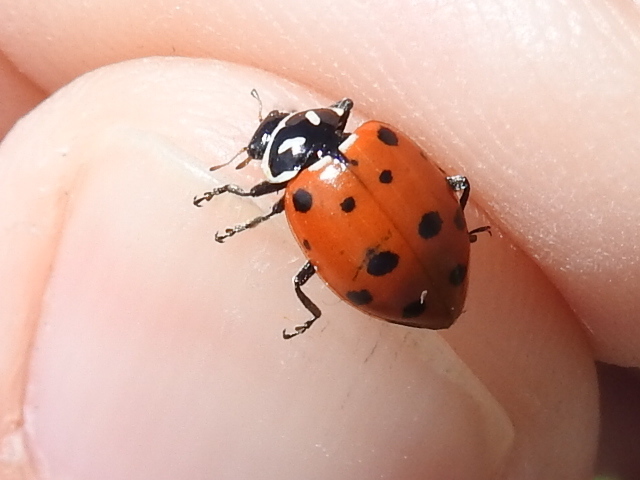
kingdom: Animalia
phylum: Arthropoda
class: Insecta
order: Coleoptera
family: Coccinellidae
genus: Hippodamia
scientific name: Hippodamia convergens
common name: Convergent lady beetle
